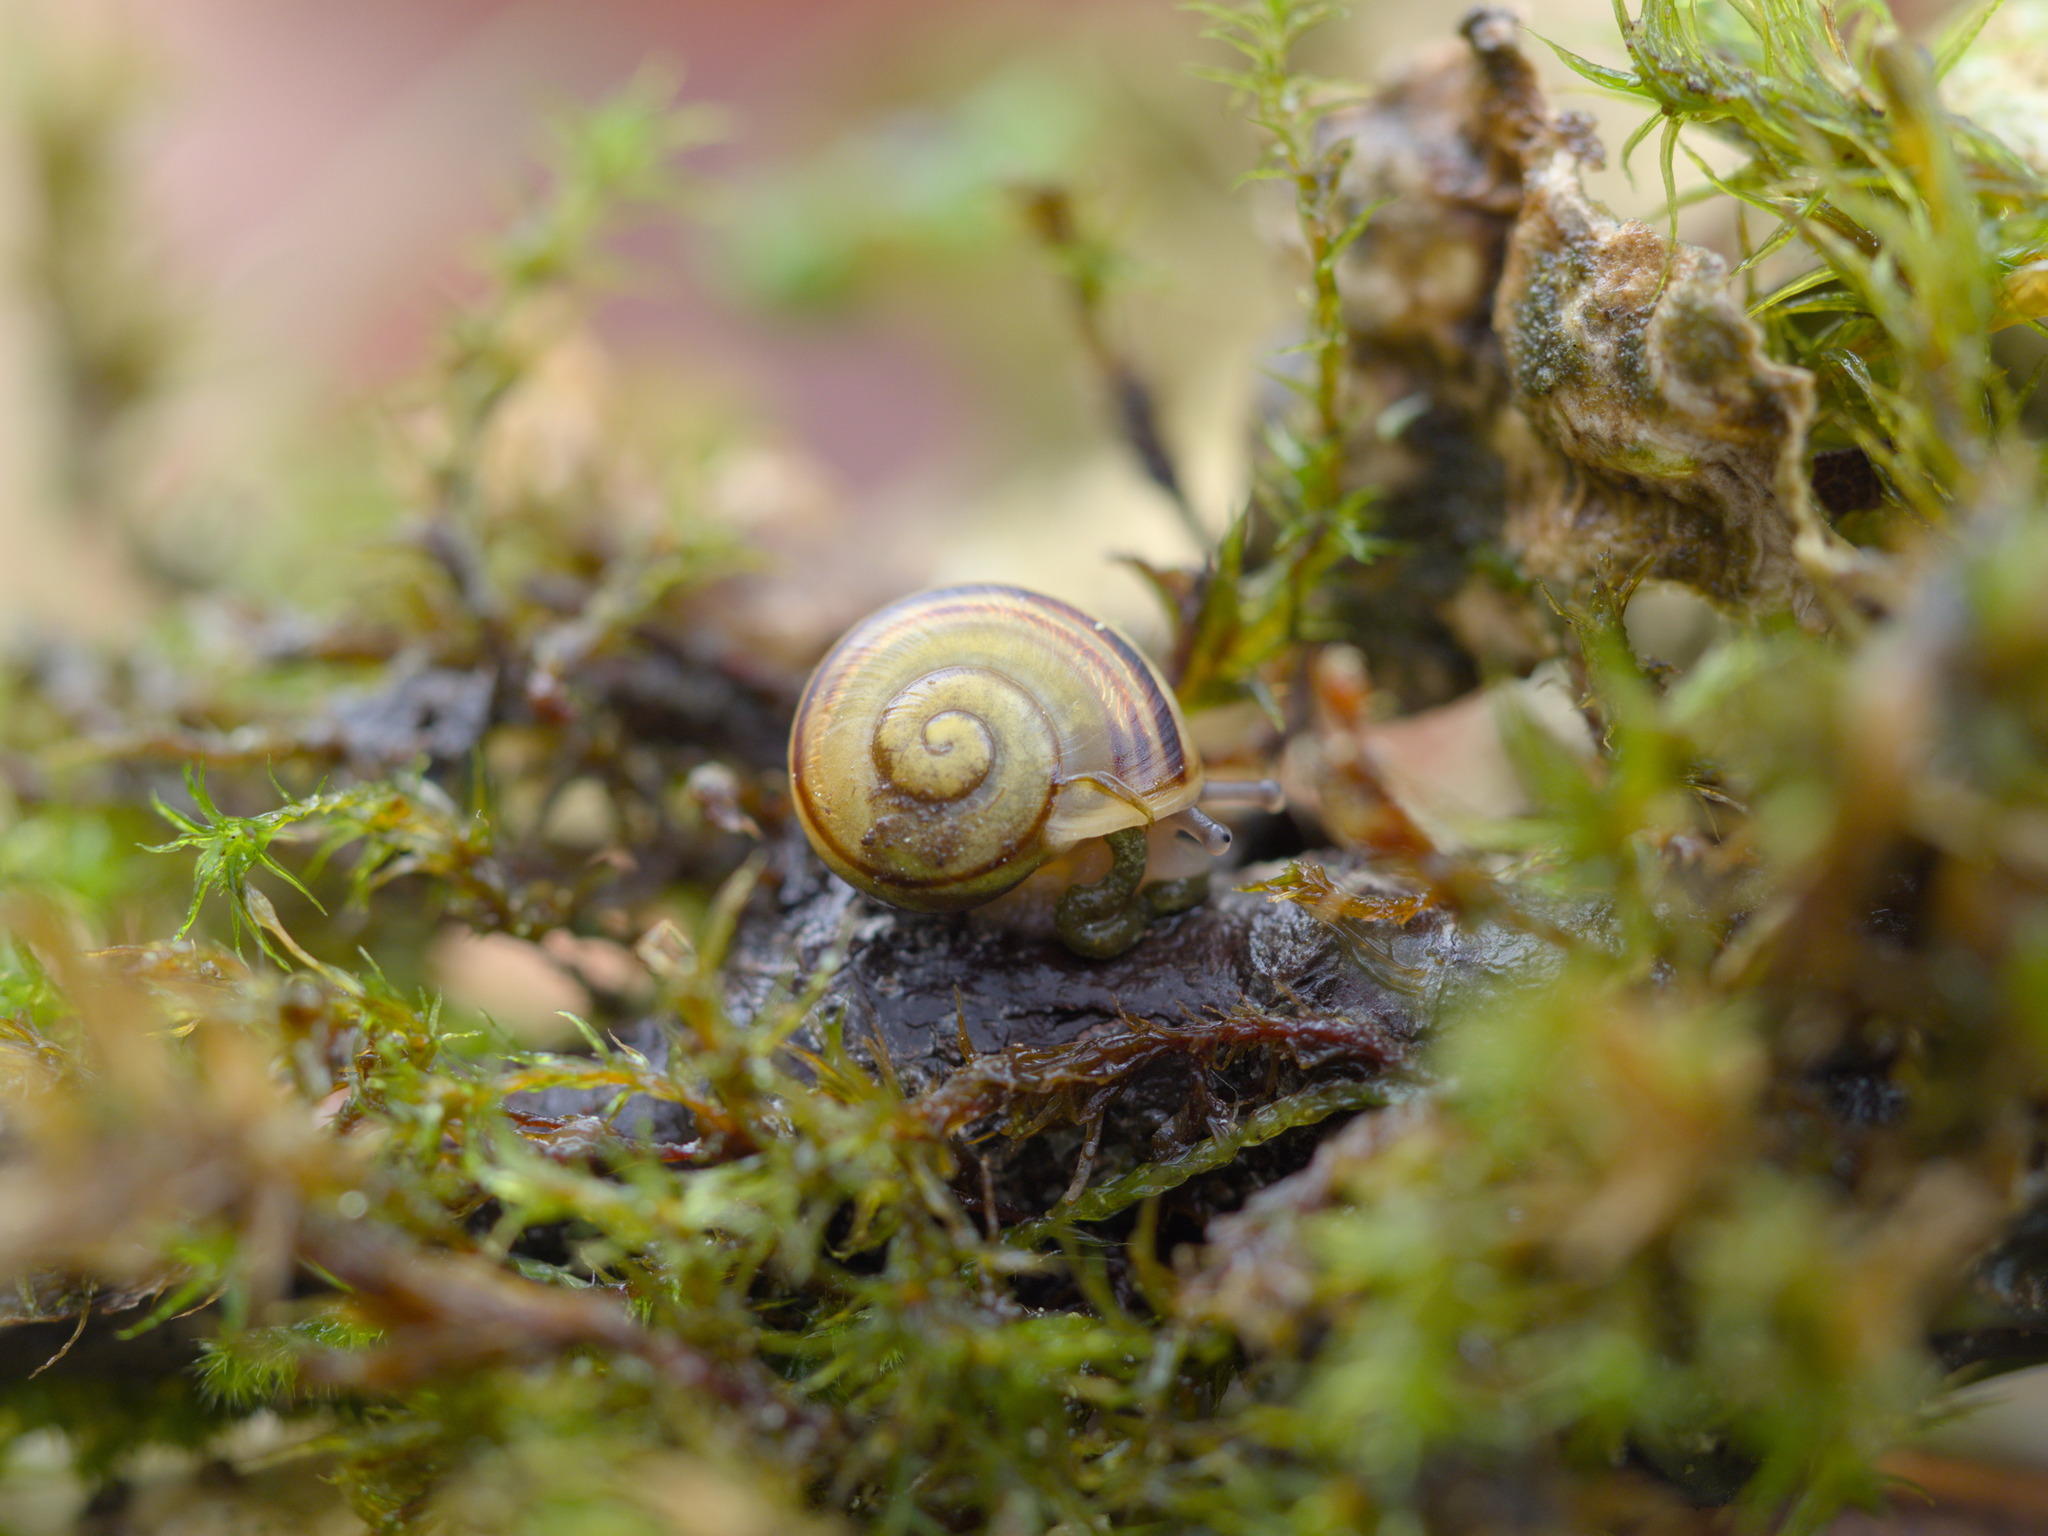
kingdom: Animalia
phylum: Mollusca
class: Gastropoda
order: Stylommatophora
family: Helicidae
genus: Cepaea
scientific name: Cepaea nemoralis
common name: Grovesnail
